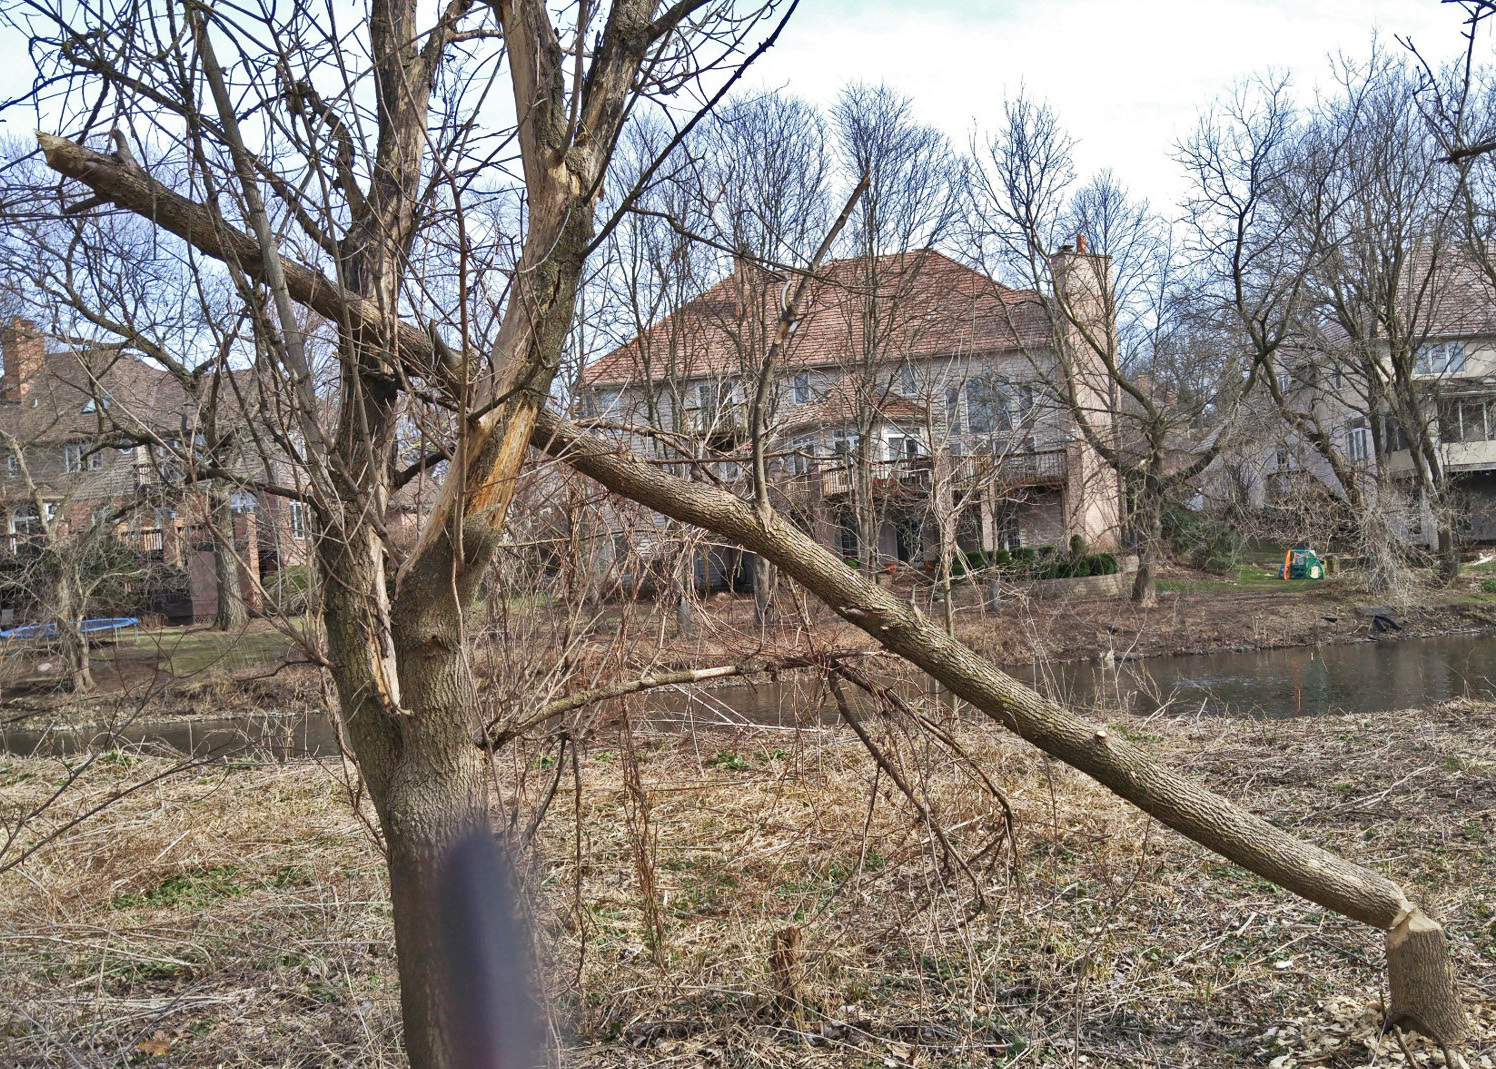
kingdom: Plantae
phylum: Tracheophyta
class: Magnoliopsida
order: Sapindales
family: Sapindaceae
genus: Acer
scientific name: Acer negundo
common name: Ashleaf maple
